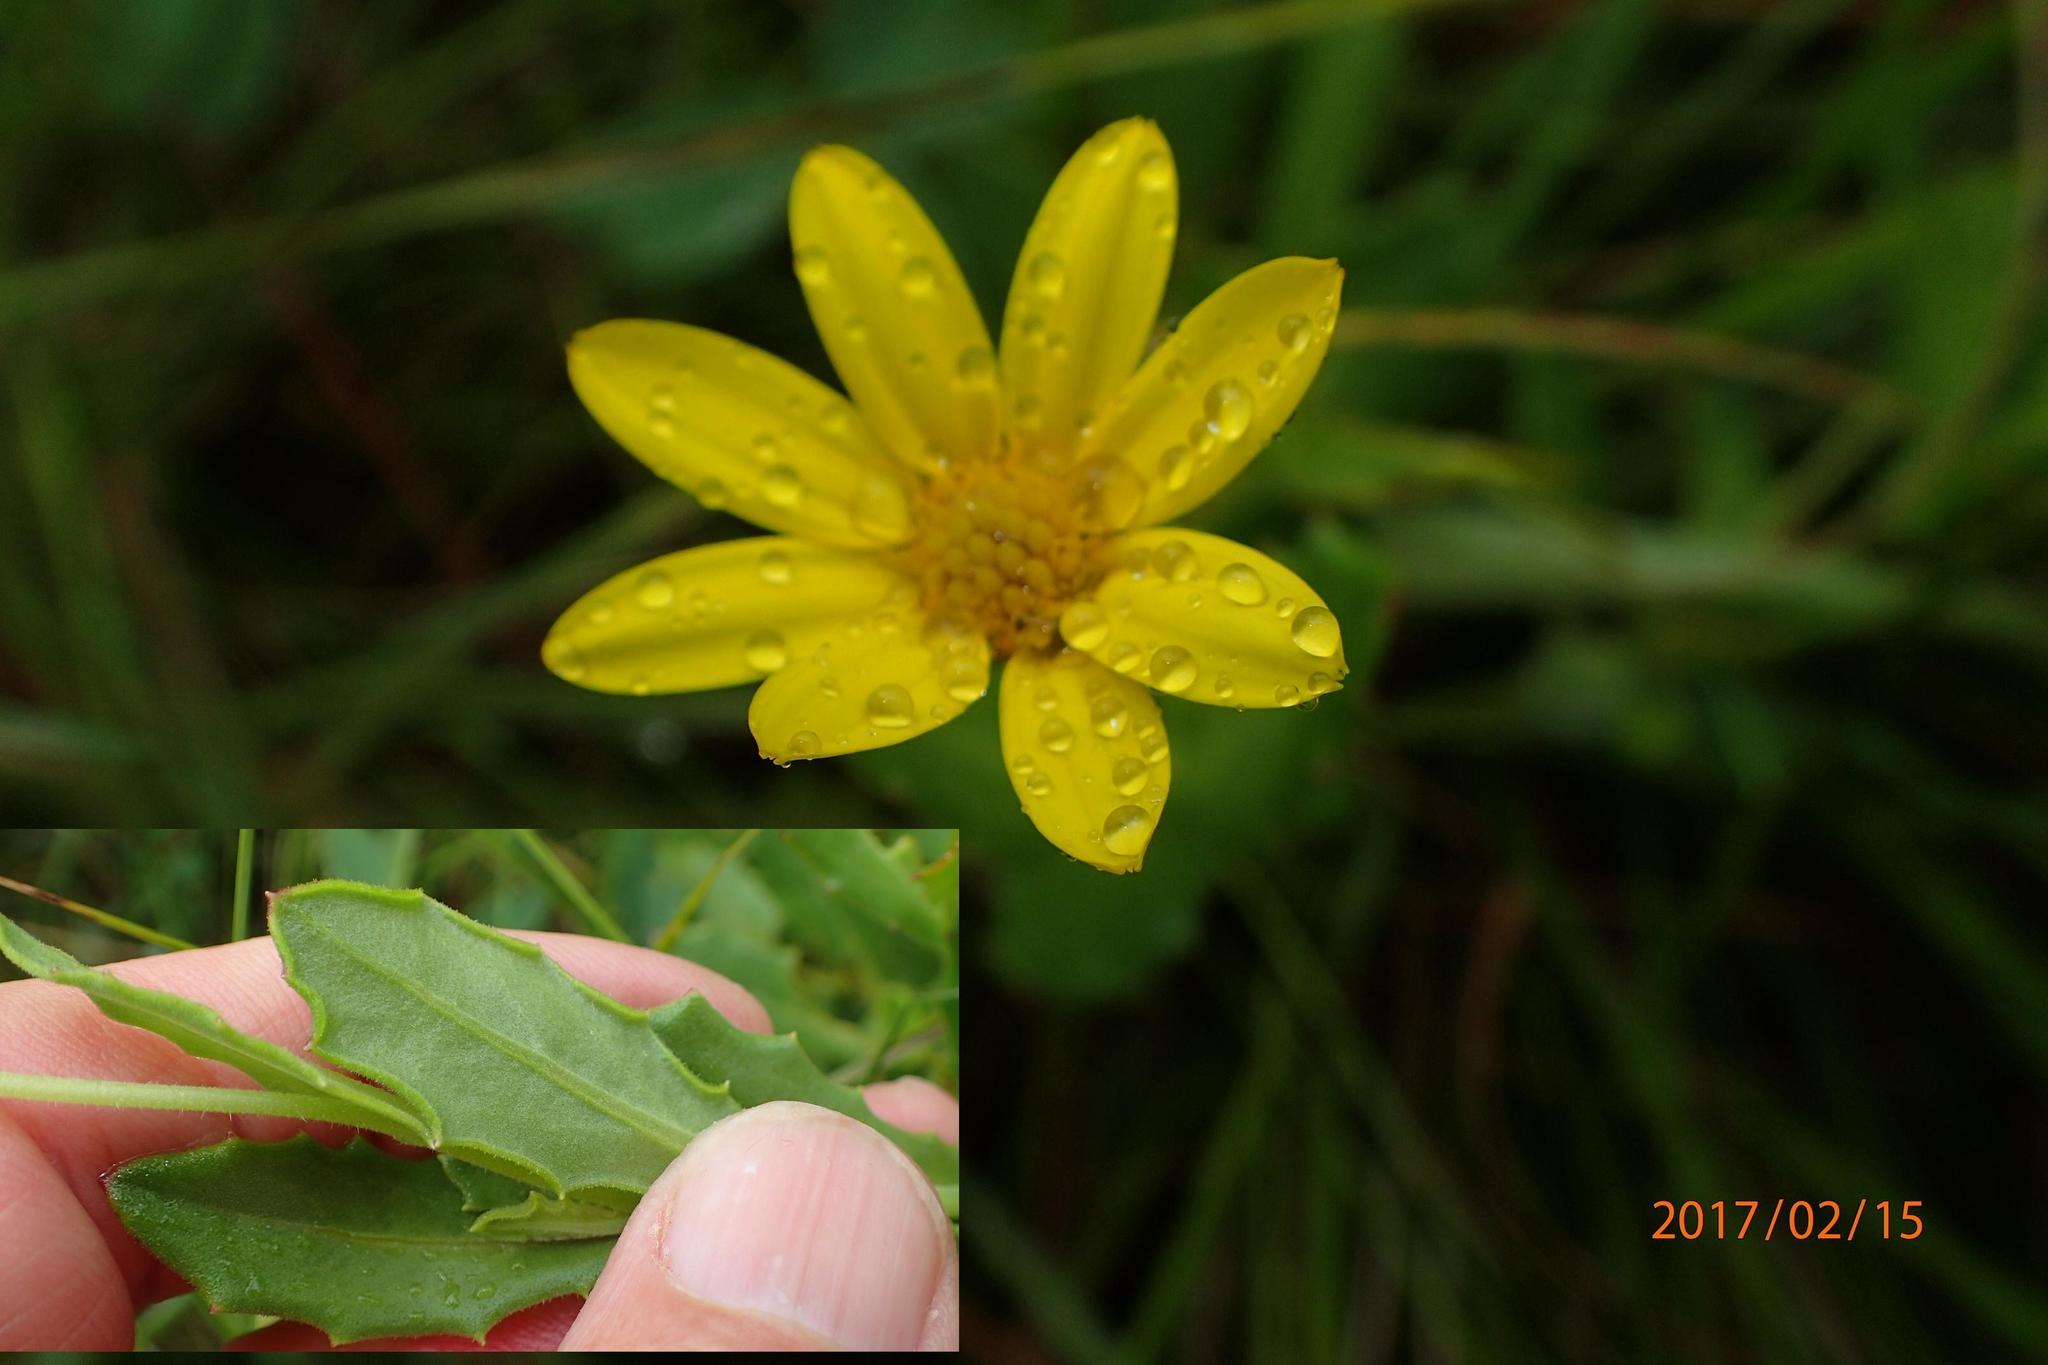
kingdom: Plantae
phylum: Tracheophyta
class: Magnoliopsida
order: Asterales
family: Asteraceae
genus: Osteospermum
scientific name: Osteospermum grandidentatum
